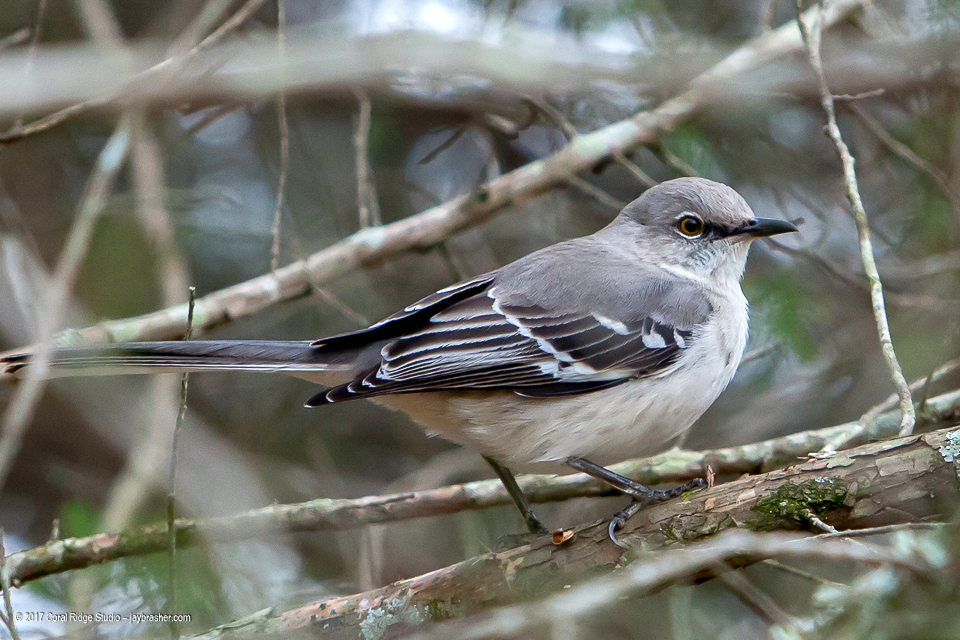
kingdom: Animalia
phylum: Chordata
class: Aves
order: Passeriformes
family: Mimidae
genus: Mimus
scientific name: Mimus polyglottos
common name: Northern mockingbird
